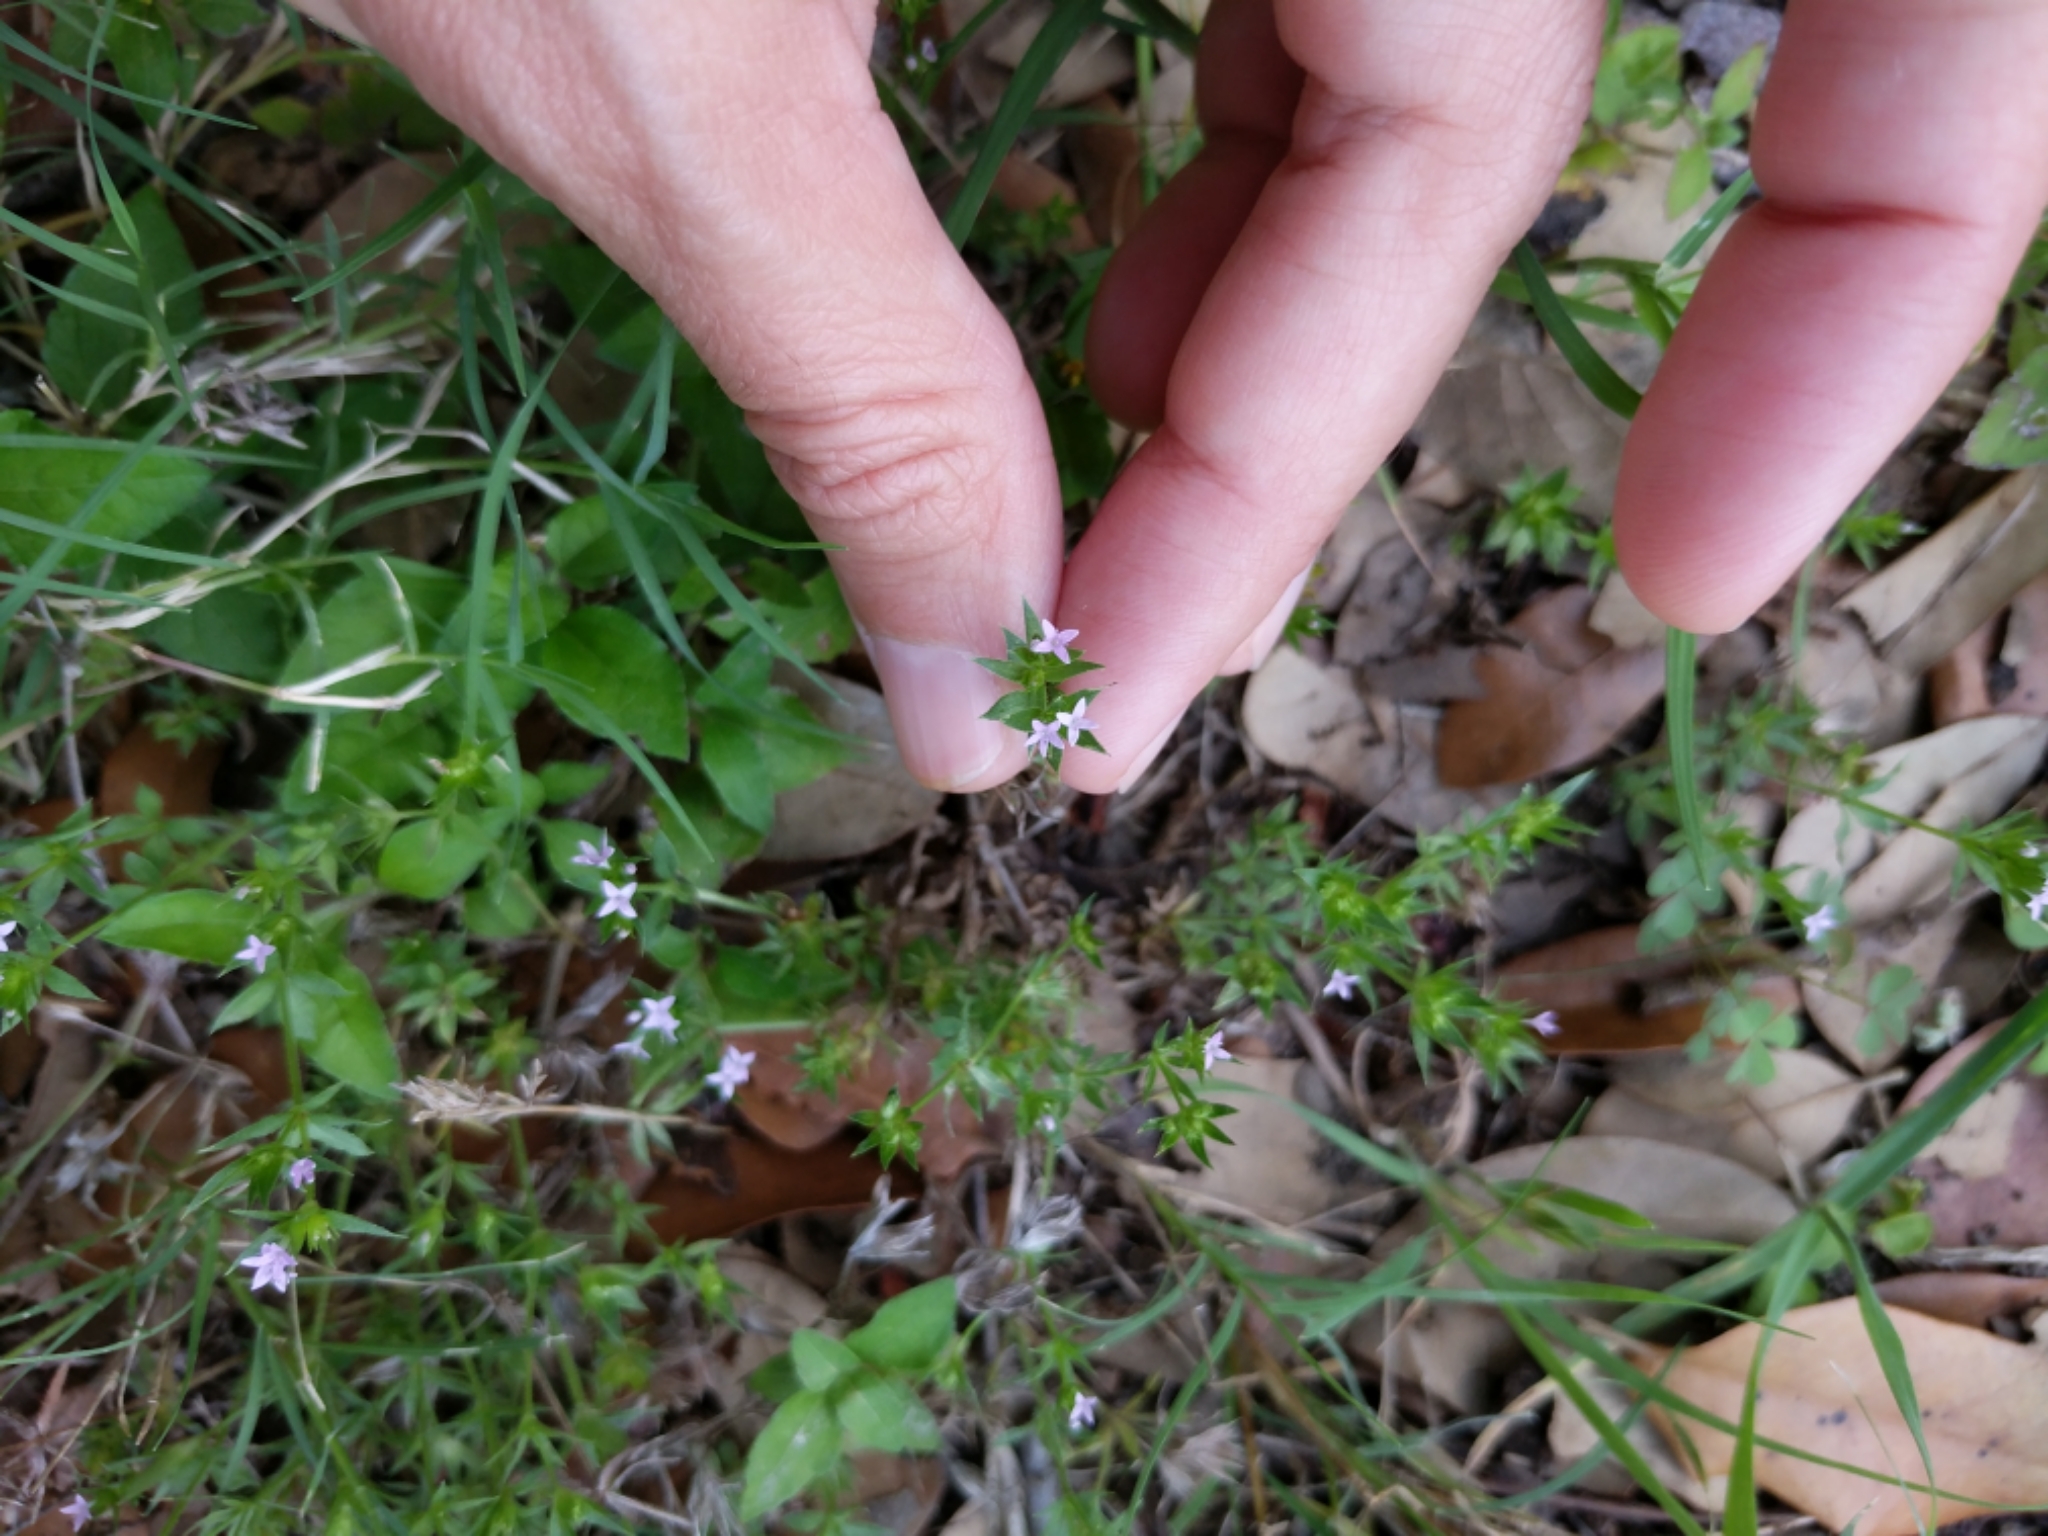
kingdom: Plantae
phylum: Tracheophyta
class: Magnoliopsida
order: Gentianales
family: Rubiaceae
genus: Sherardia
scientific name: Sherardia arvensis
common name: Field madder
